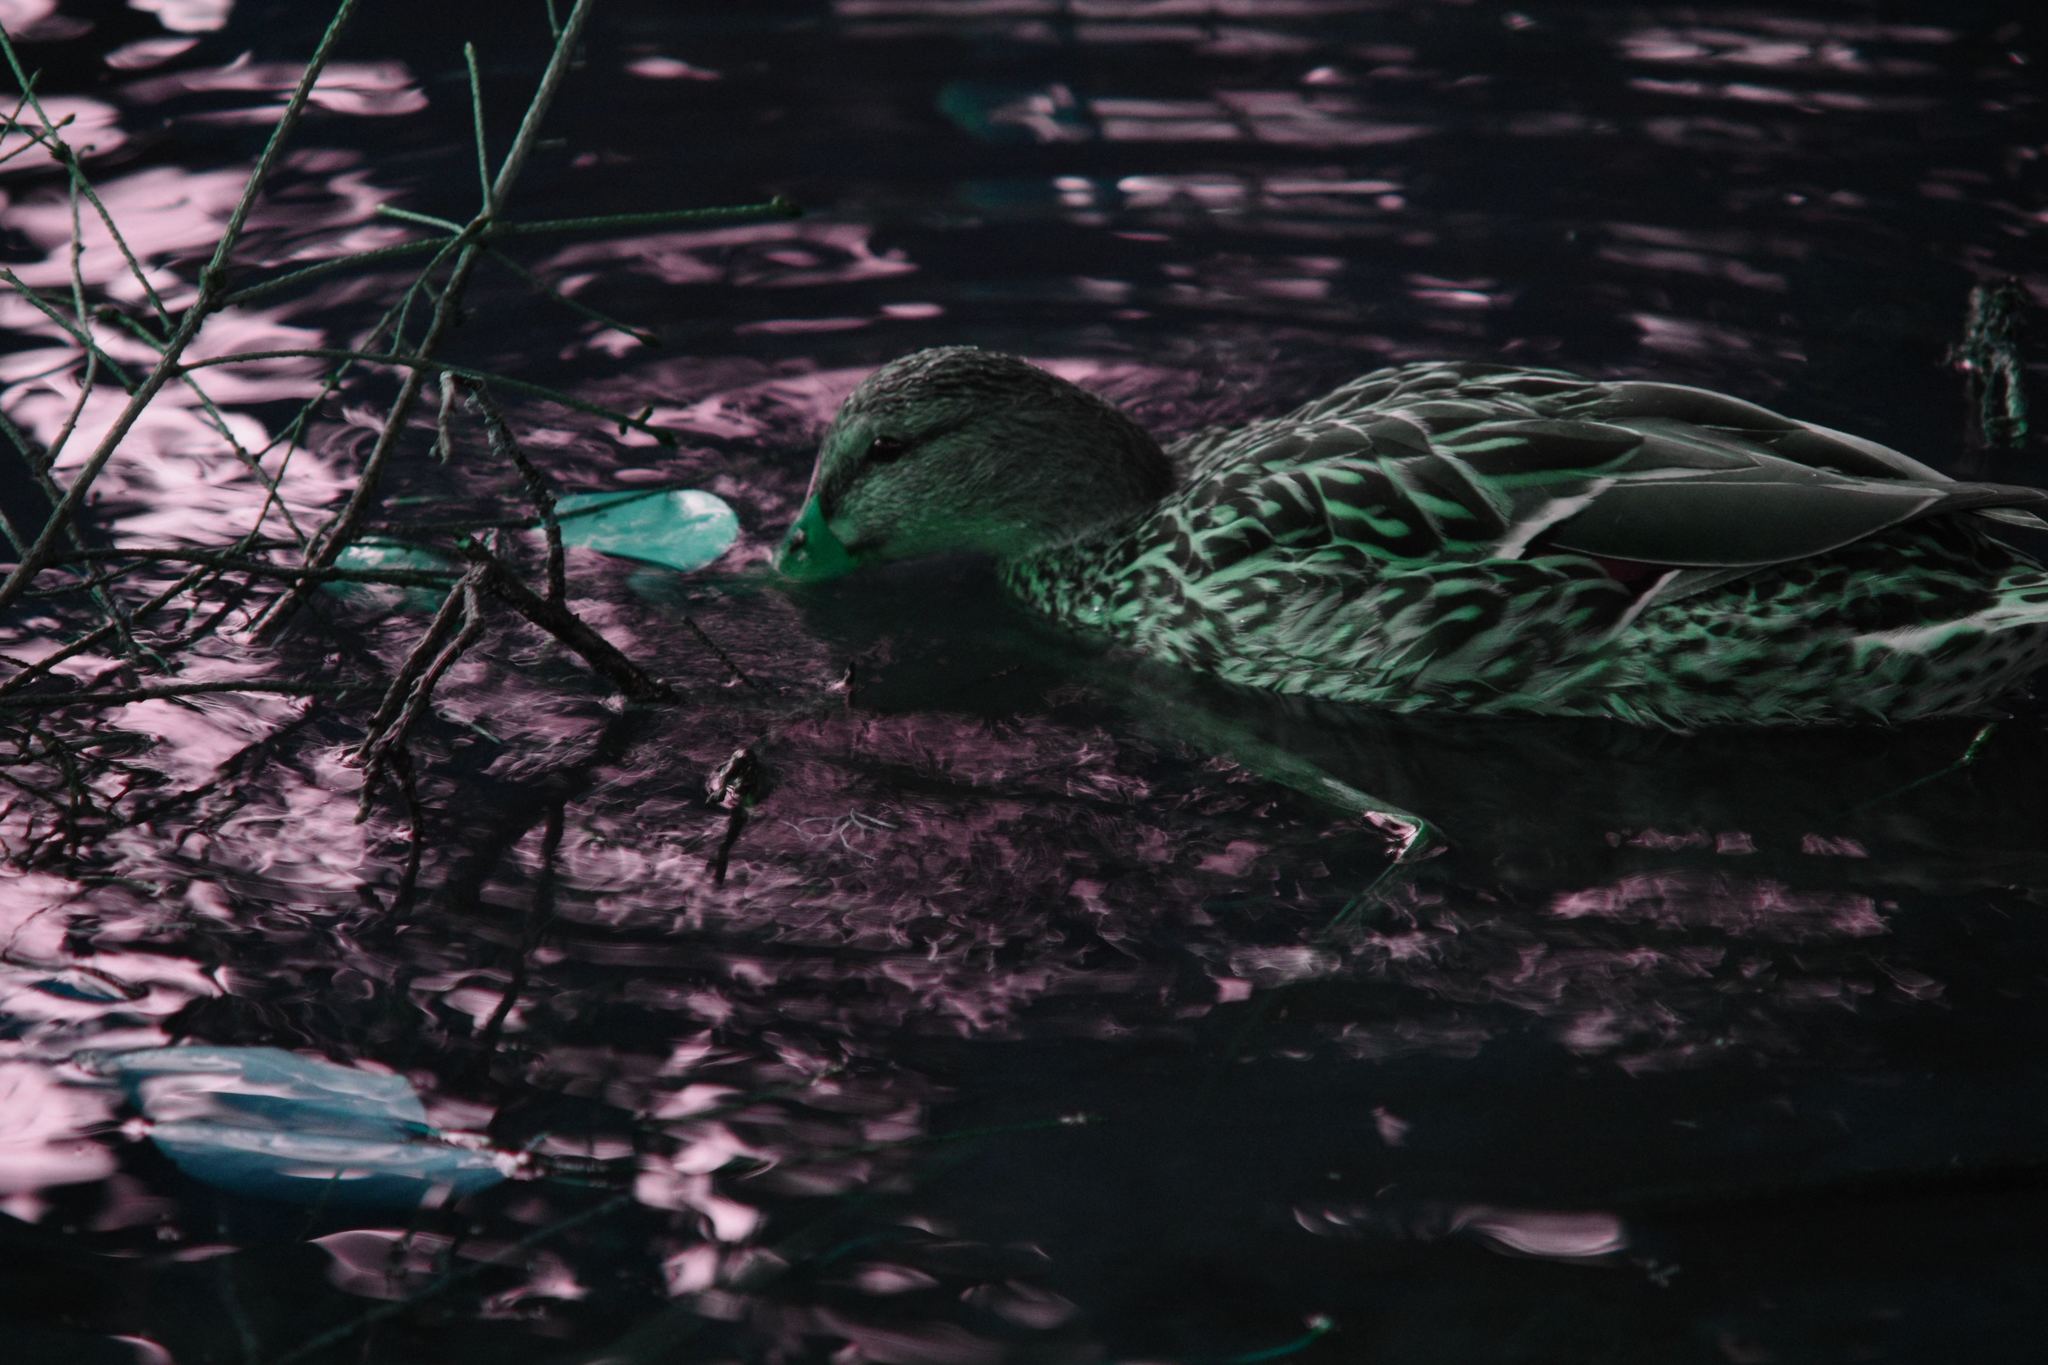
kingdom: Animalia
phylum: Chordata
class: Aves
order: Anseriformes
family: Anatidae
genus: Anas
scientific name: Anas platyrhynchos
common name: Mallard
